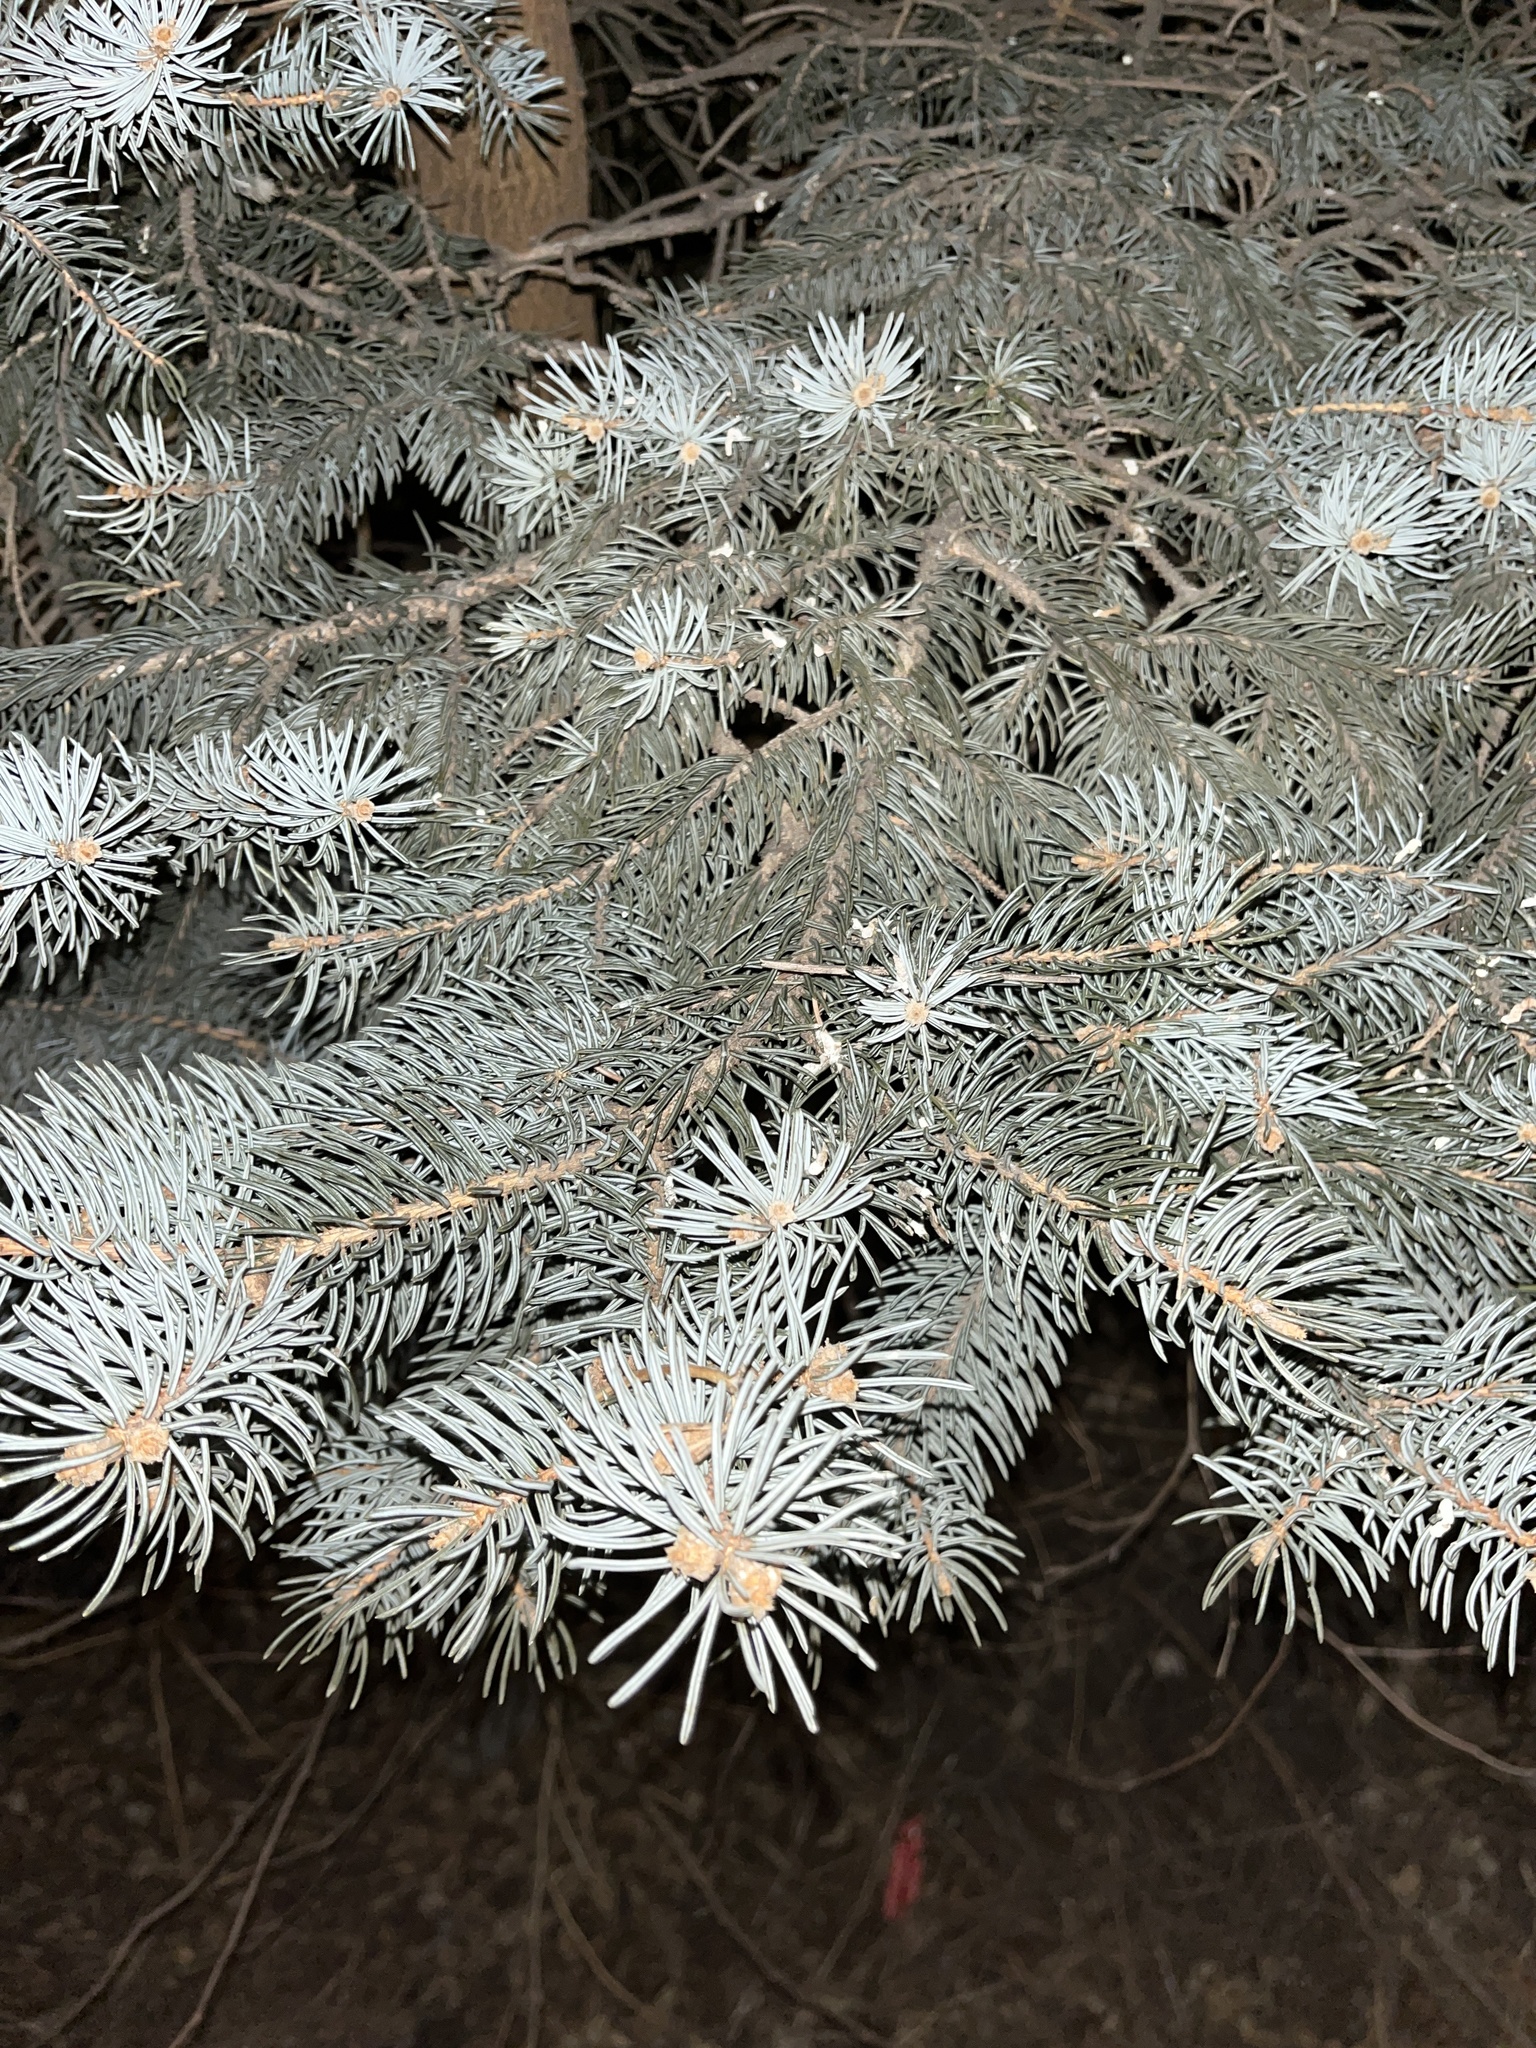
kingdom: Plantae
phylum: Tracheophyta
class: Pinopsida
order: Pinales
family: Pinaceae
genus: Picea
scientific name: Picea pungens
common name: Colorado spruce
